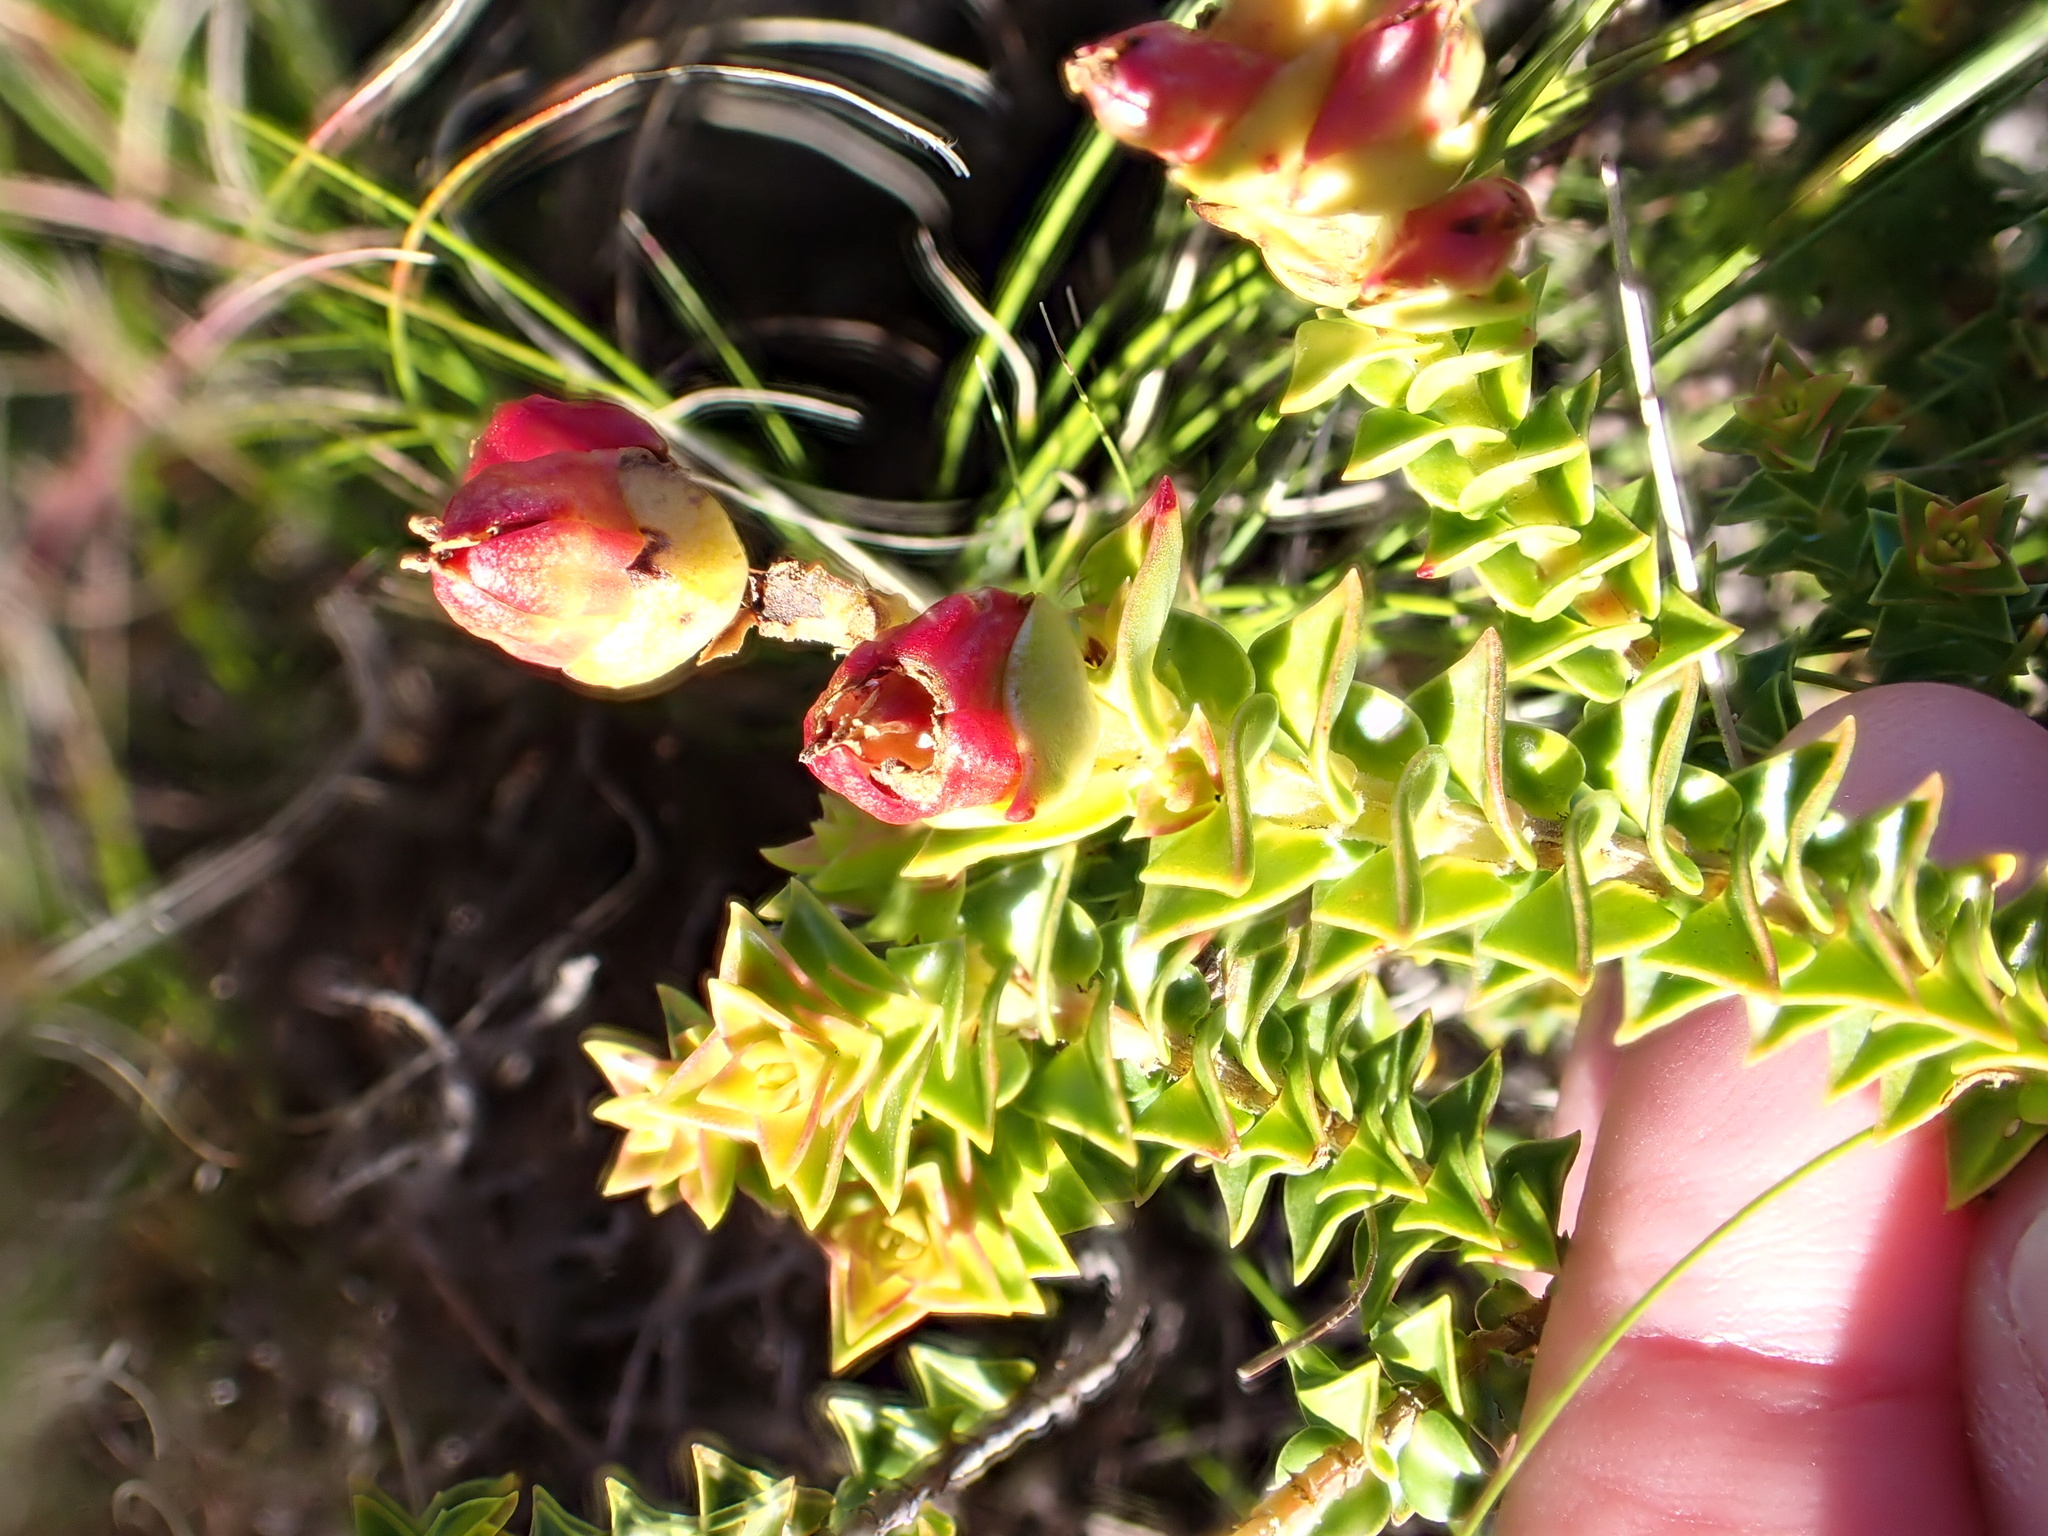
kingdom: Plantae
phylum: Tracheophyta
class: Magnoliopsida
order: Myrtales
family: Penaeaceae
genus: Penaea
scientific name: Penaea mucronata
